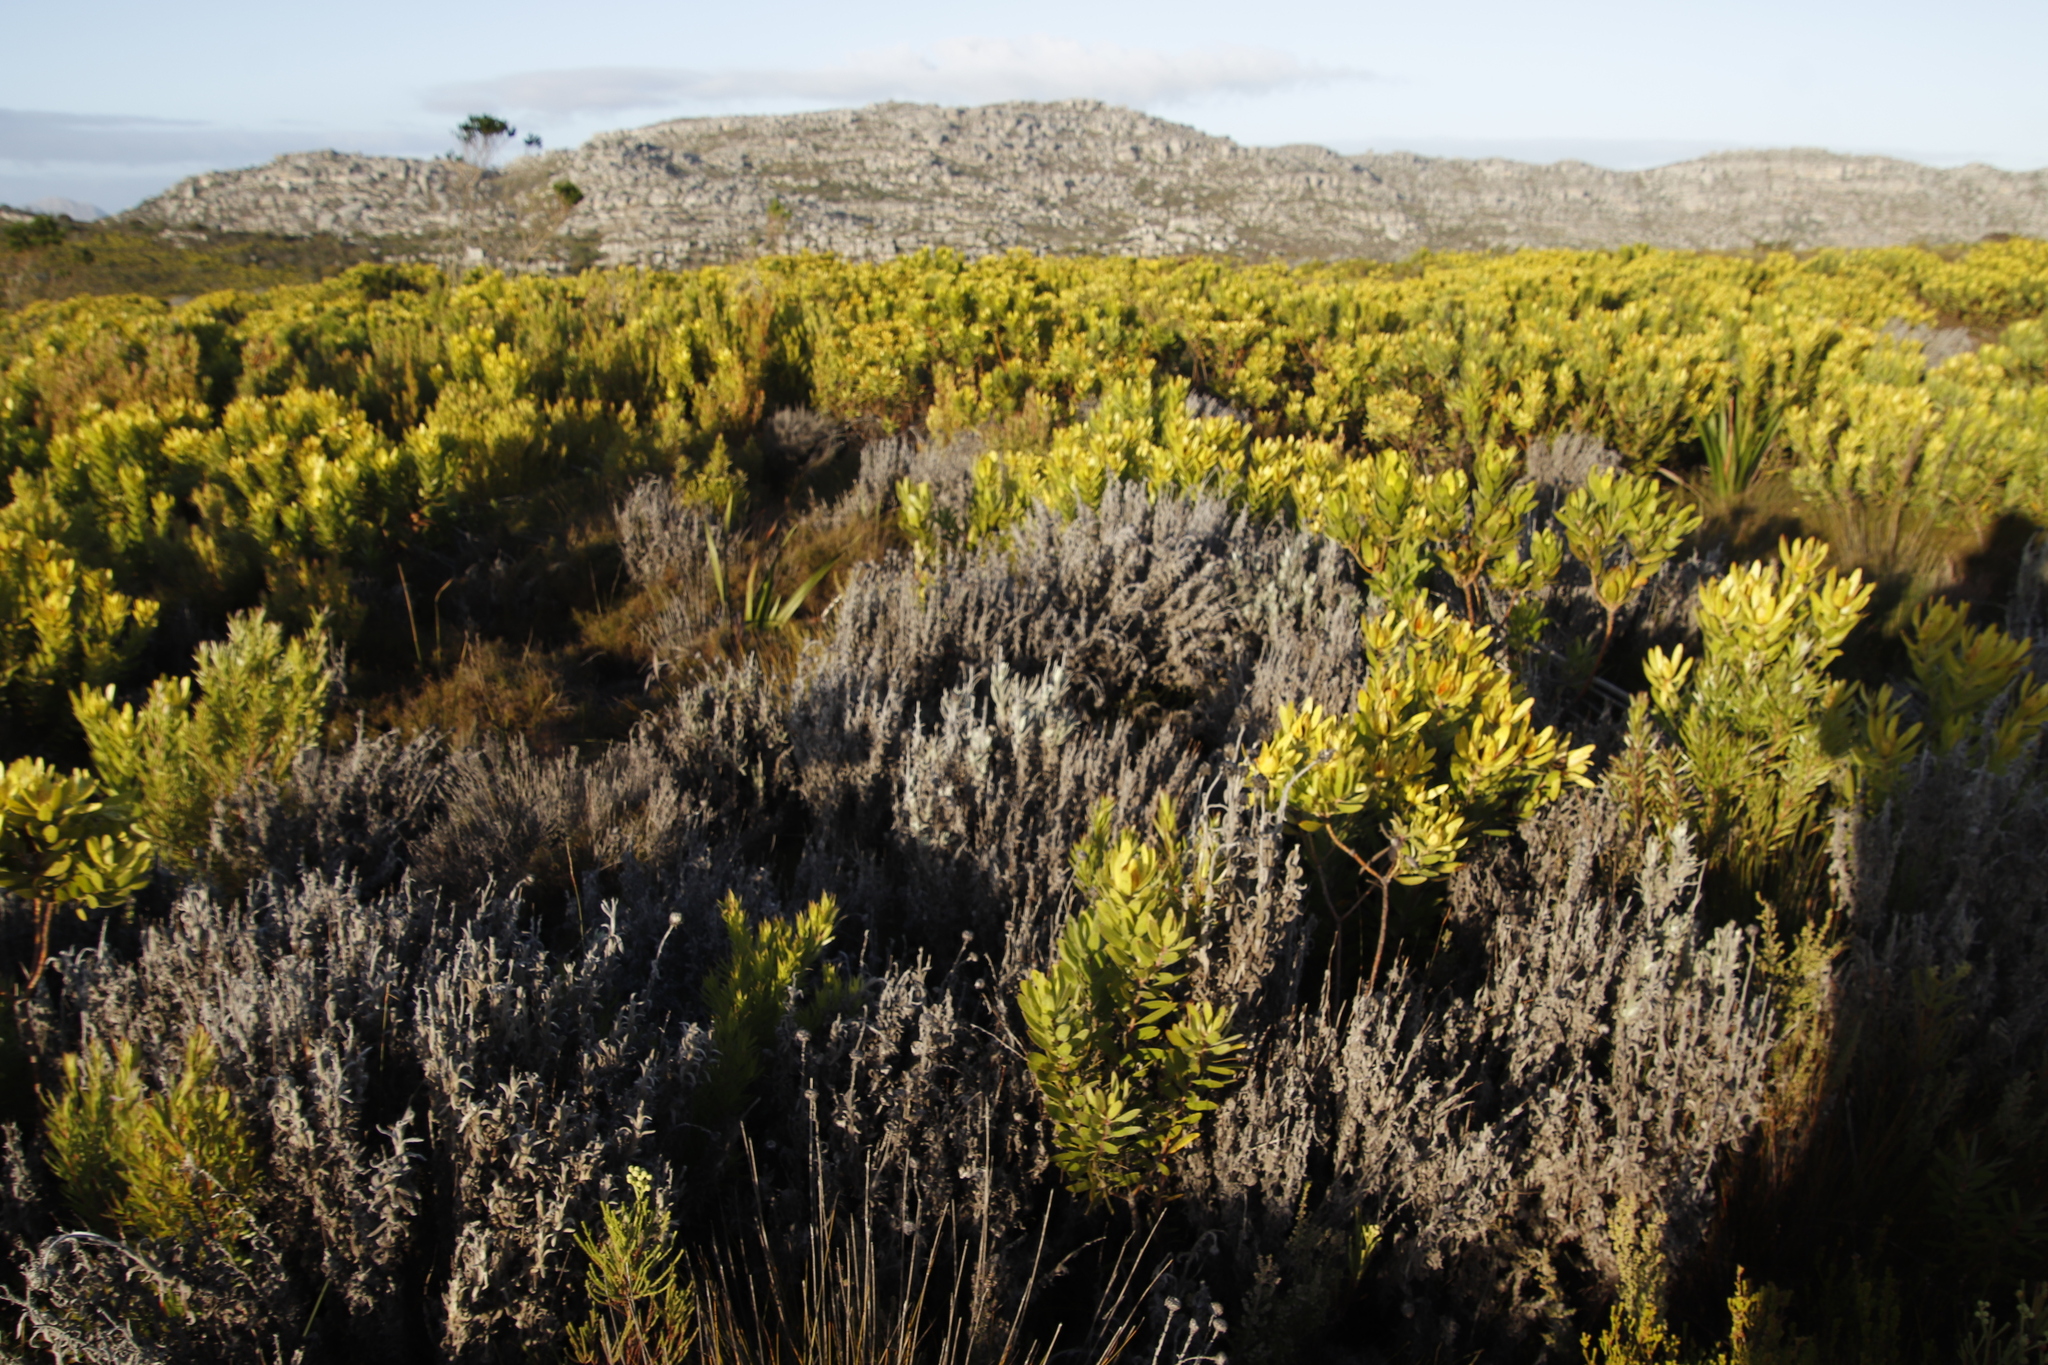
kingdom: Plantae
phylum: Tracheophyta
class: Magnoliopsida
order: Asterales
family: Asteraceae
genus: Syncarpha
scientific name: Syncarpha vestita
